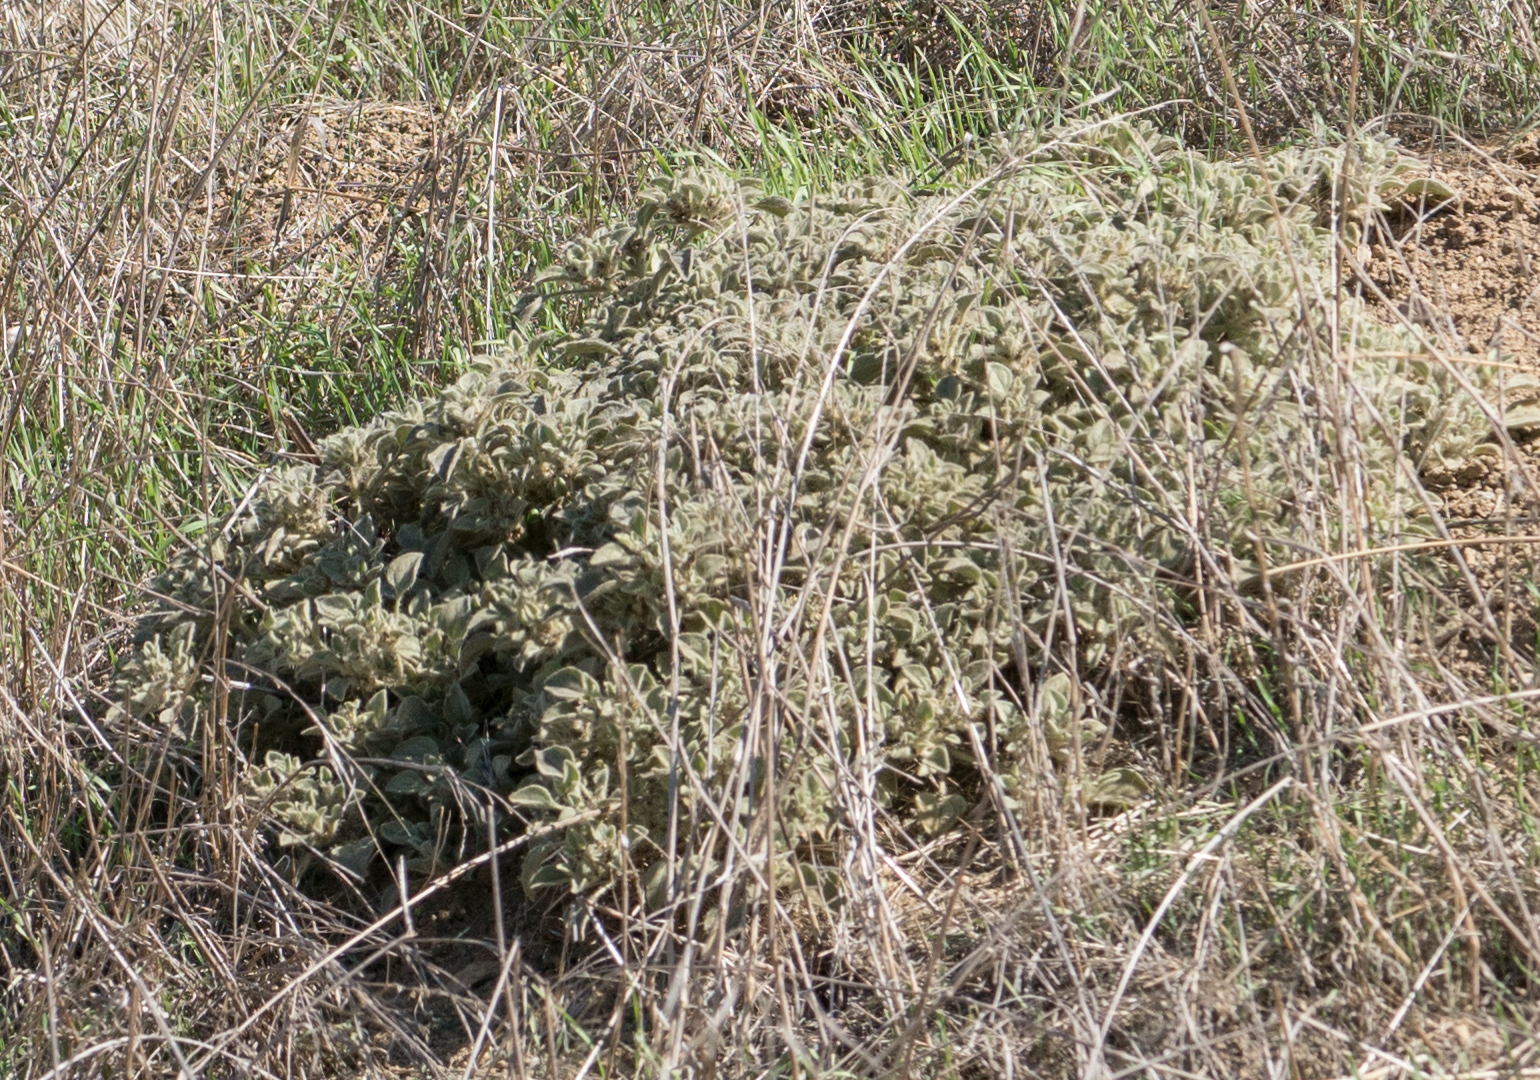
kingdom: Plantae
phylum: Tracheophyta
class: Magnoliopsida
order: Malpighiales
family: Euphorbiaceae
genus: Croton
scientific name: Croton setiger
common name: Dove weed
